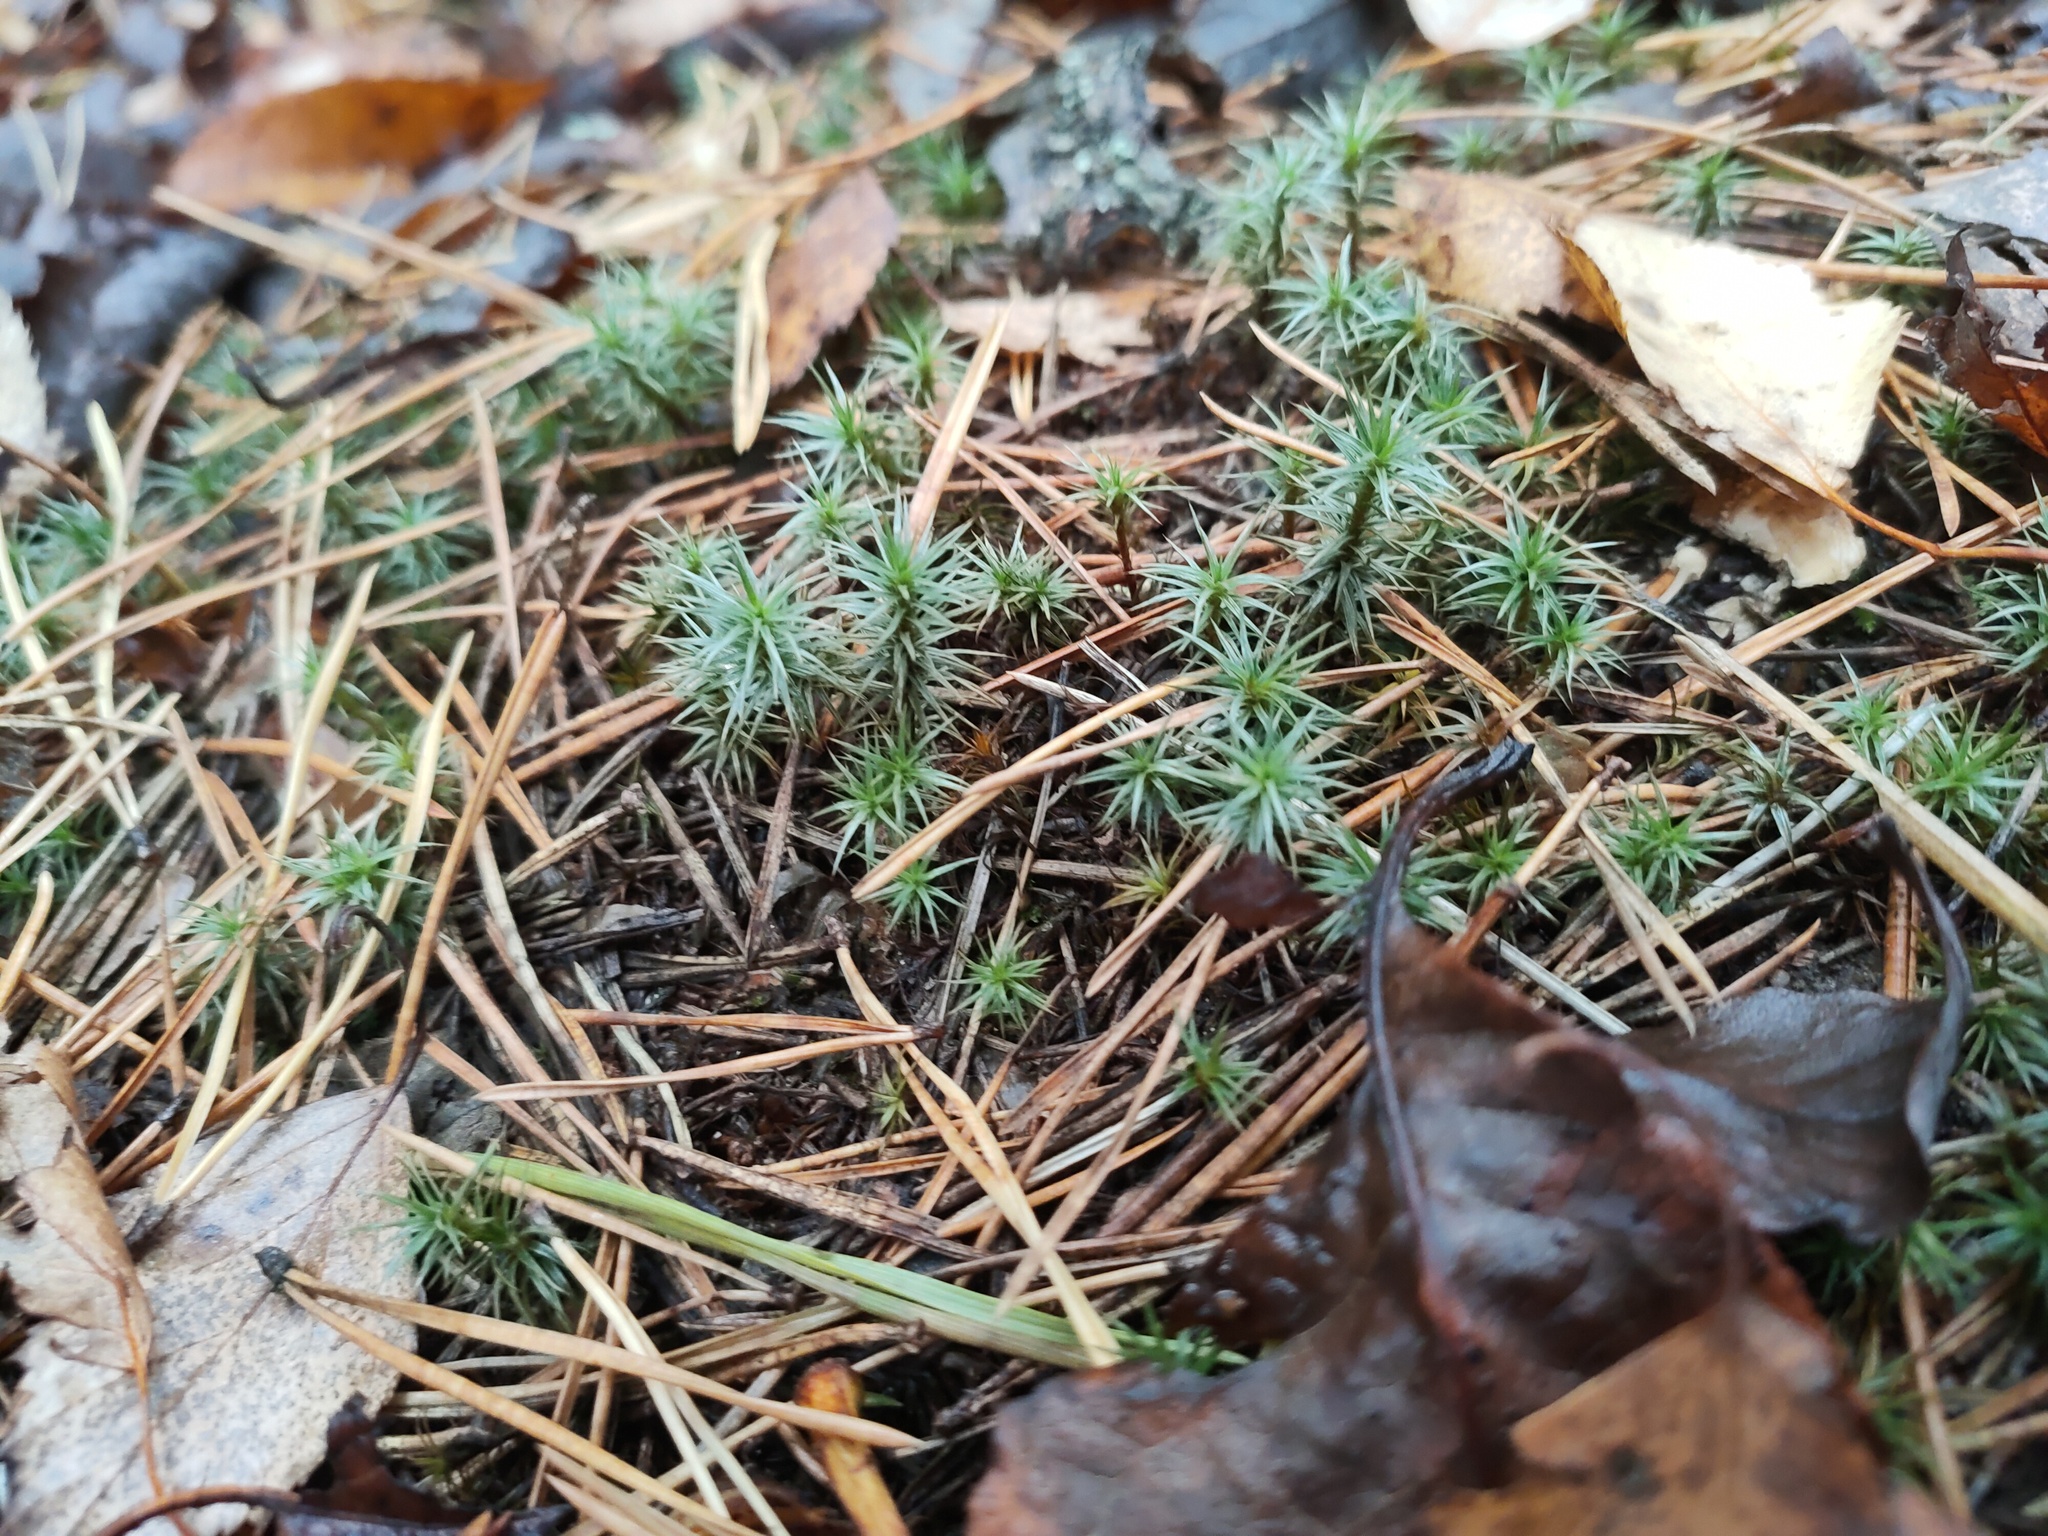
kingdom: Plantae
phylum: Bryophyta
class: Polytrichopsida
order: Polytrichales
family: Polytrichaceae
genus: Polytrichum
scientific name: Polytrichum juniperinum
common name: Juniper haircap moss
